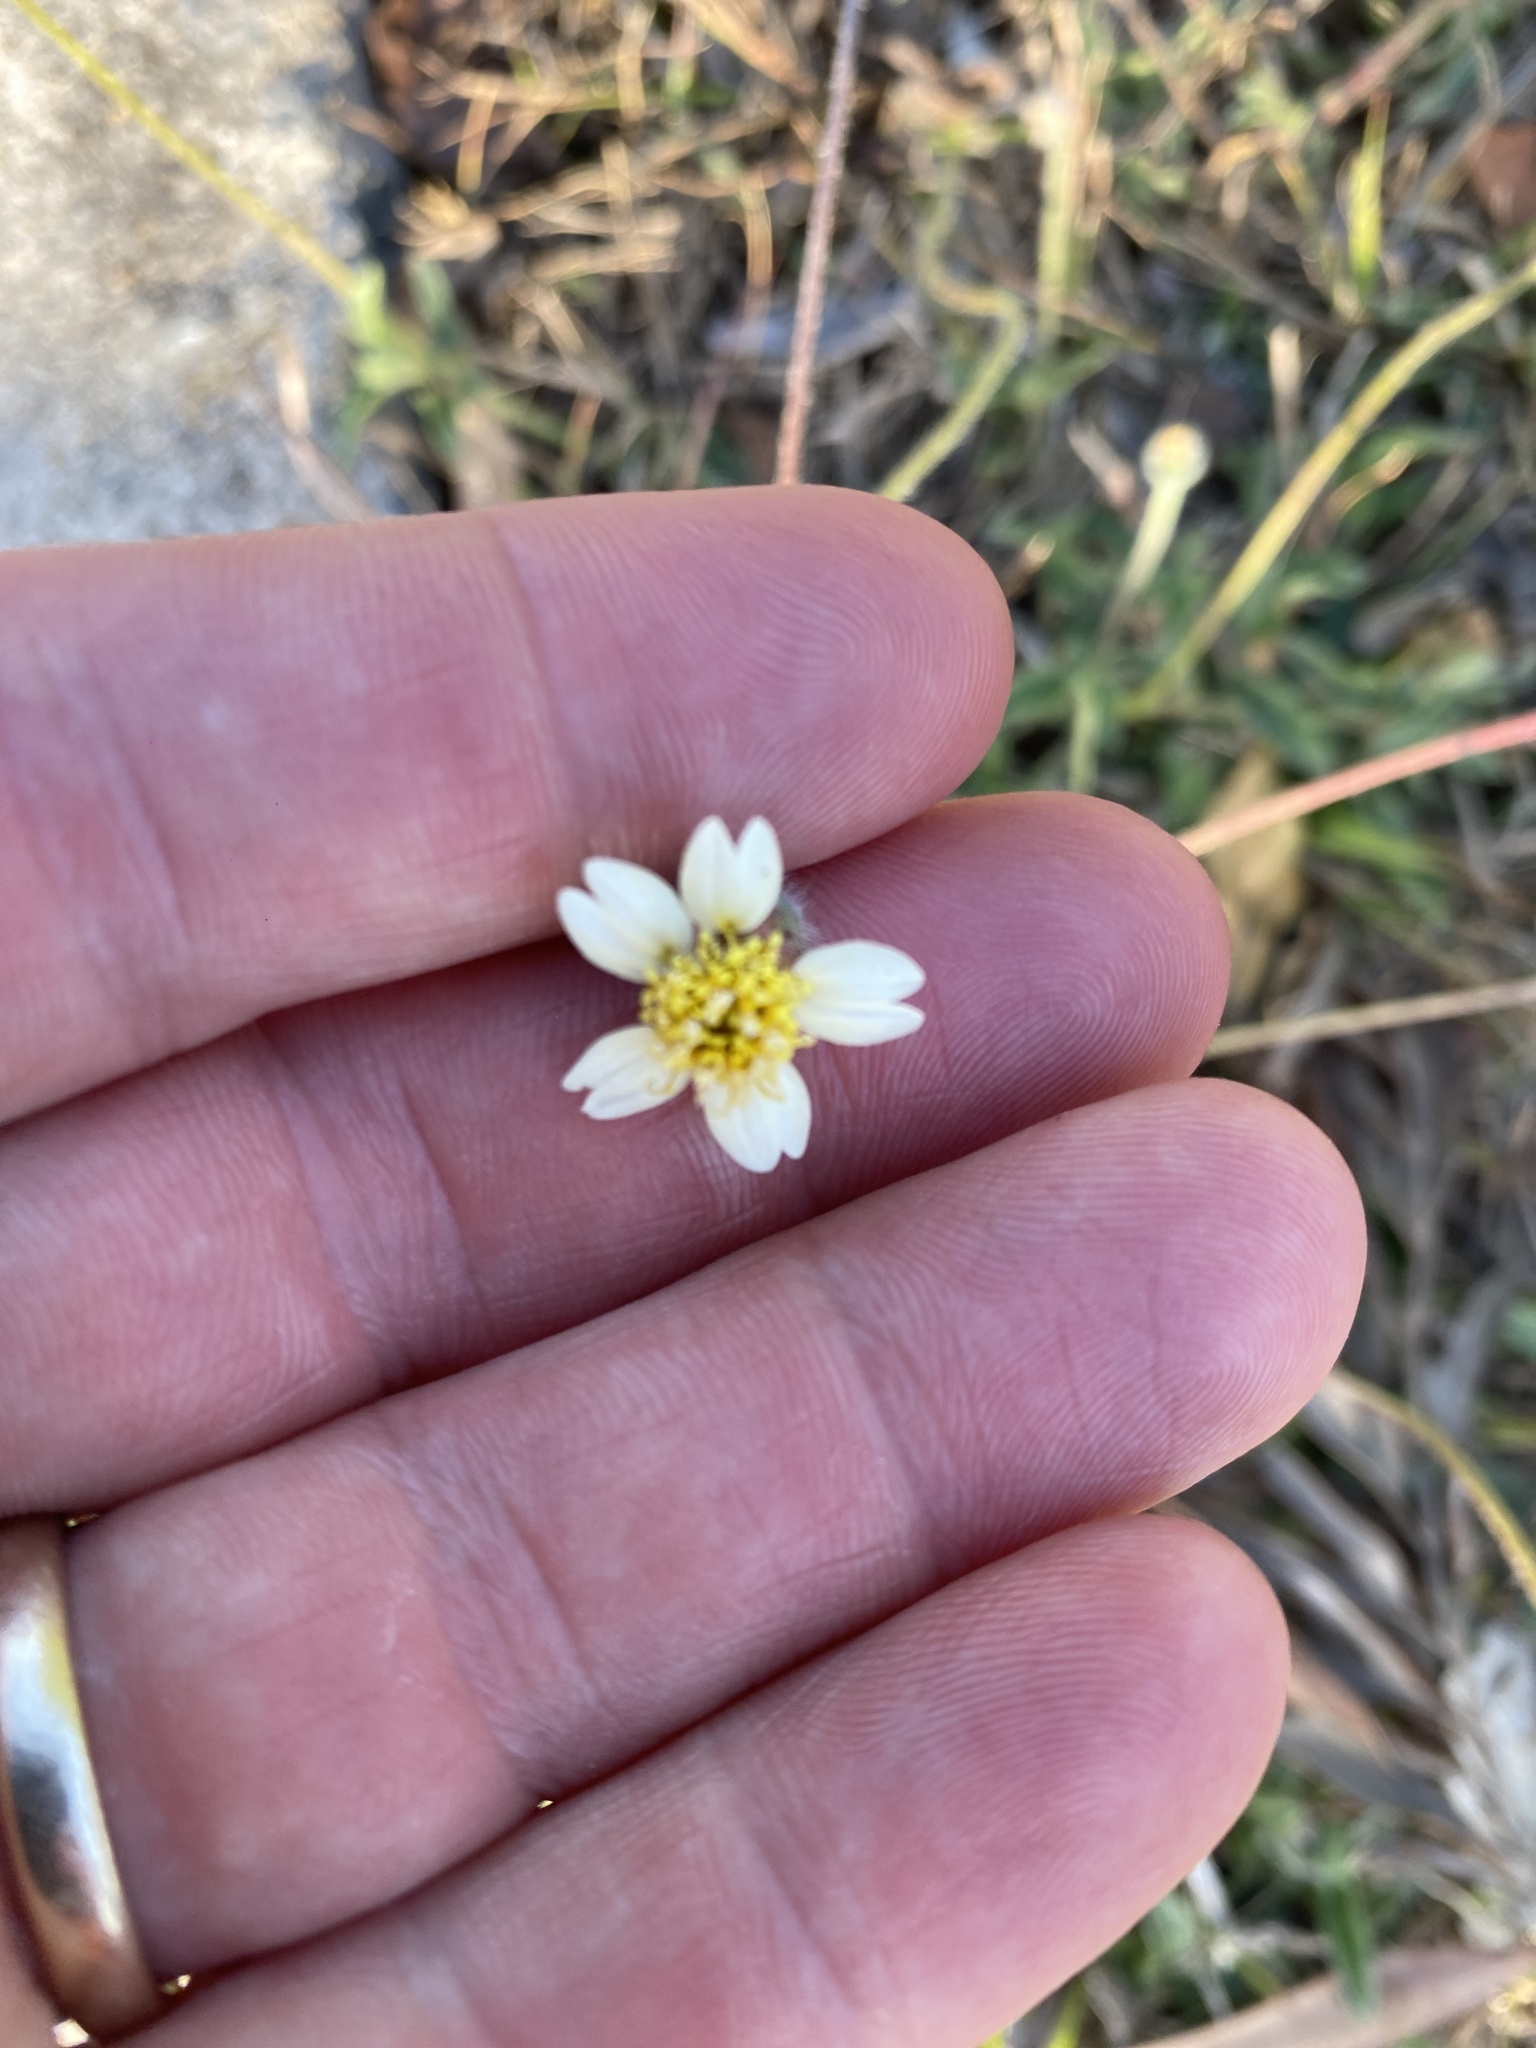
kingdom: Plantae
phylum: Tracheophyta
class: Magnoliopsida
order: Asterales
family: Asteraceae
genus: Tridax
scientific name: Tridax procumbens
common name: Coatbuttons
